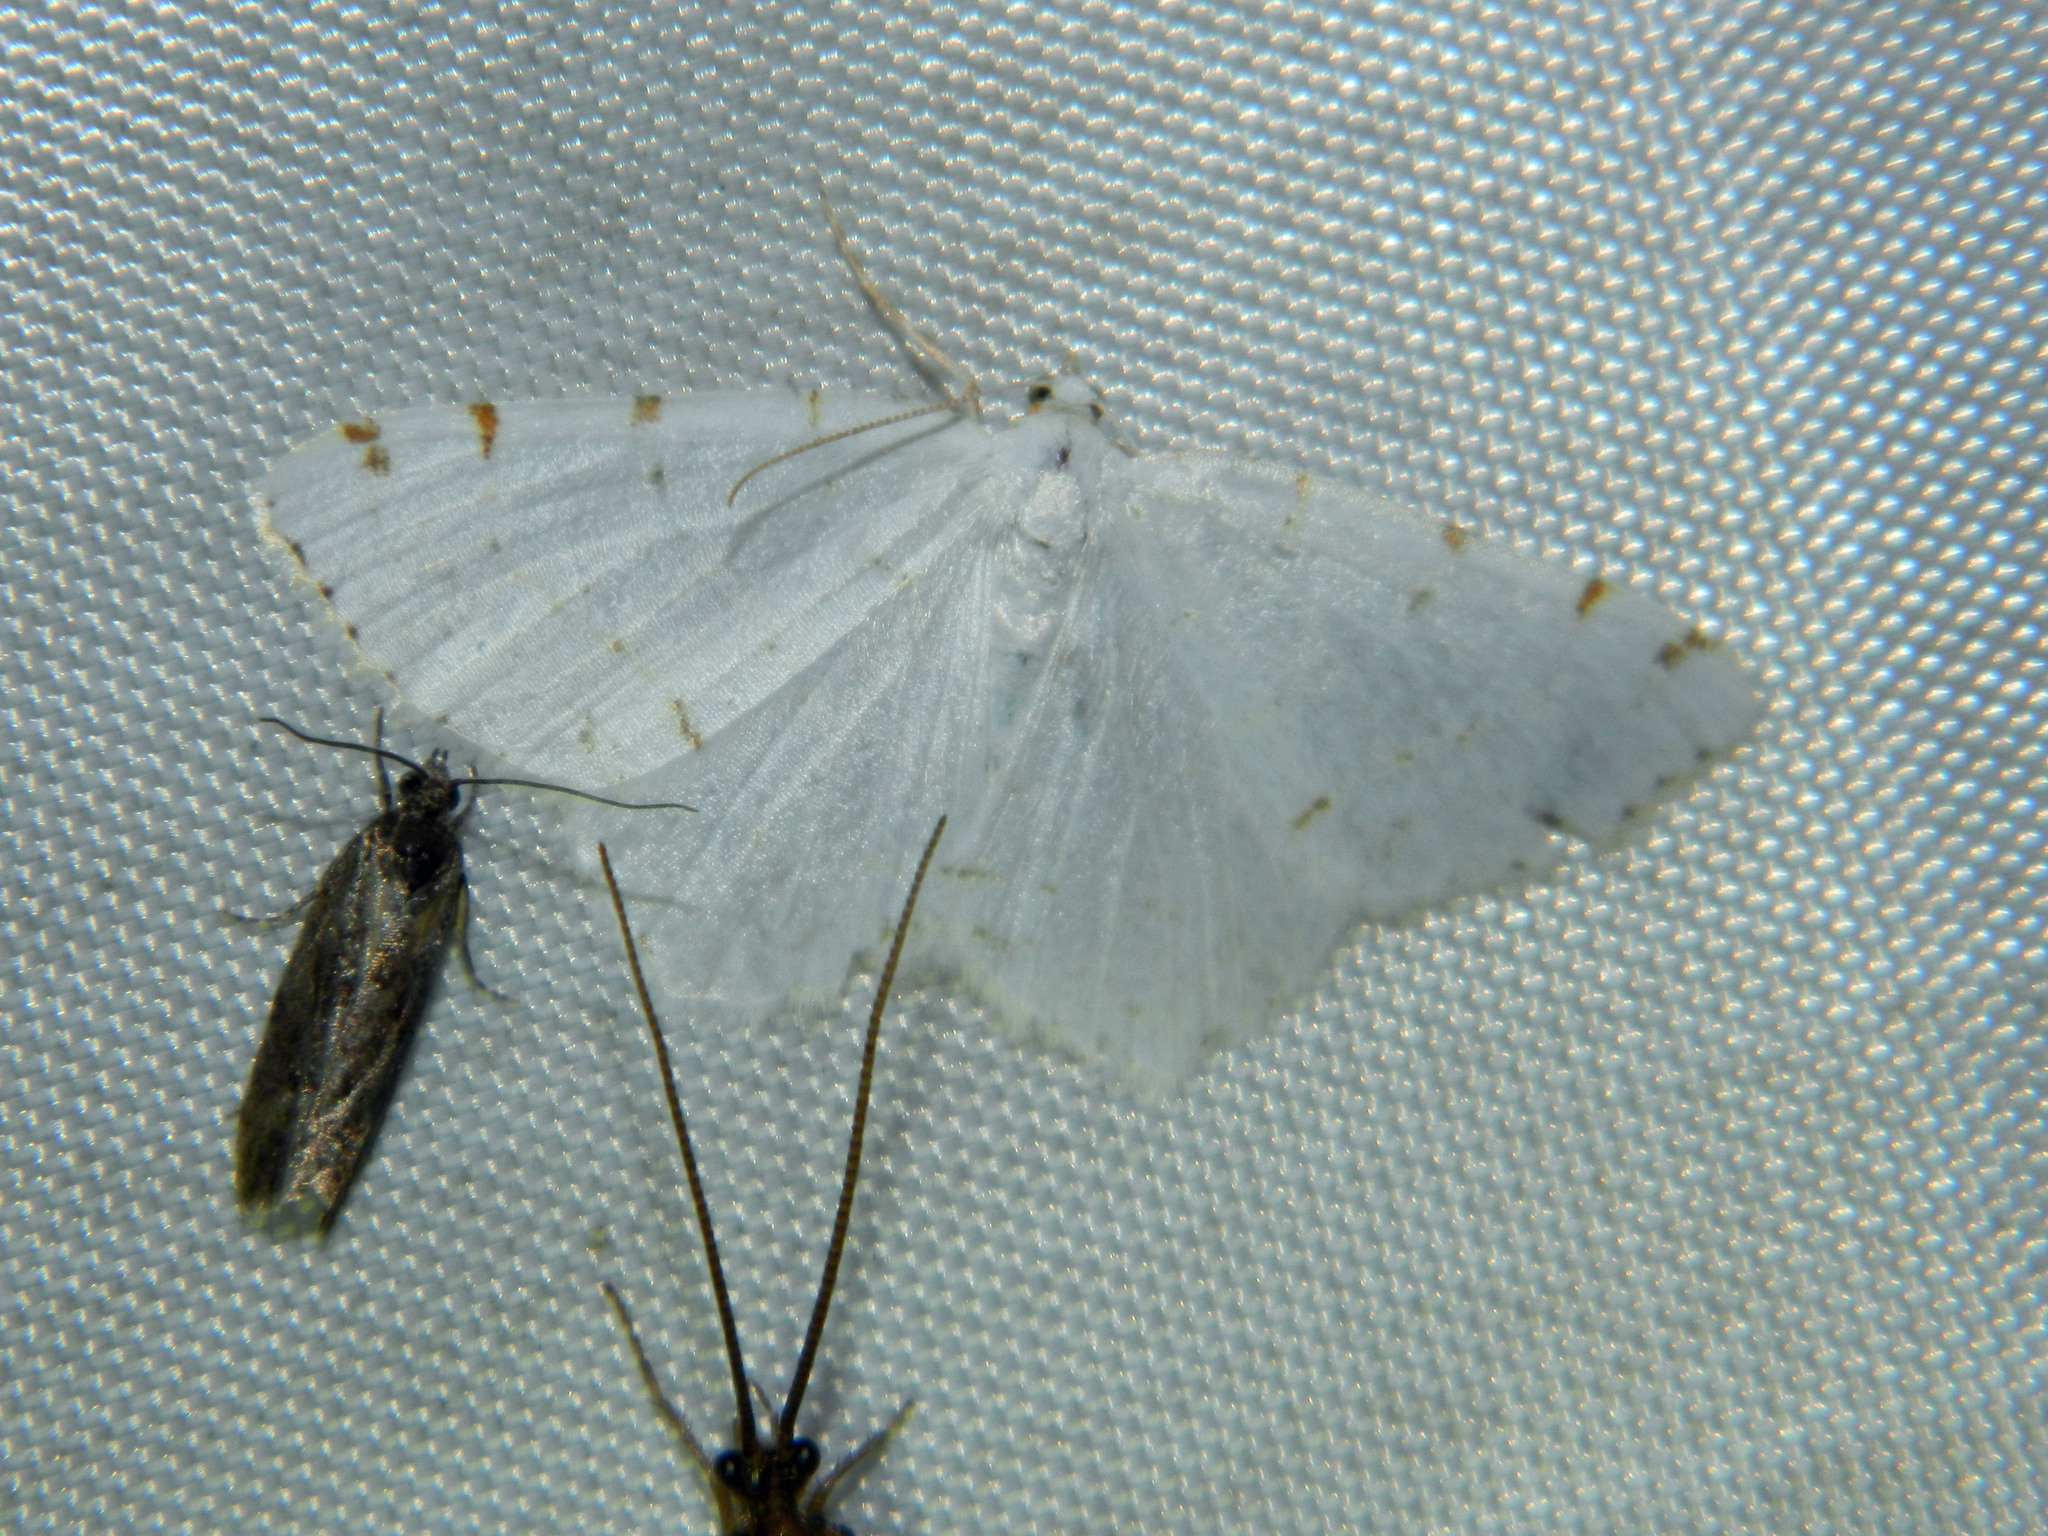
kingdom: Animalia
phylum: Arthropoda
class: Insecta
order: Lepidoptera
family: Geometridae
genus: Macaria
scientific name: Macaria pustularia
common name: Lesser maple spanworm moth
